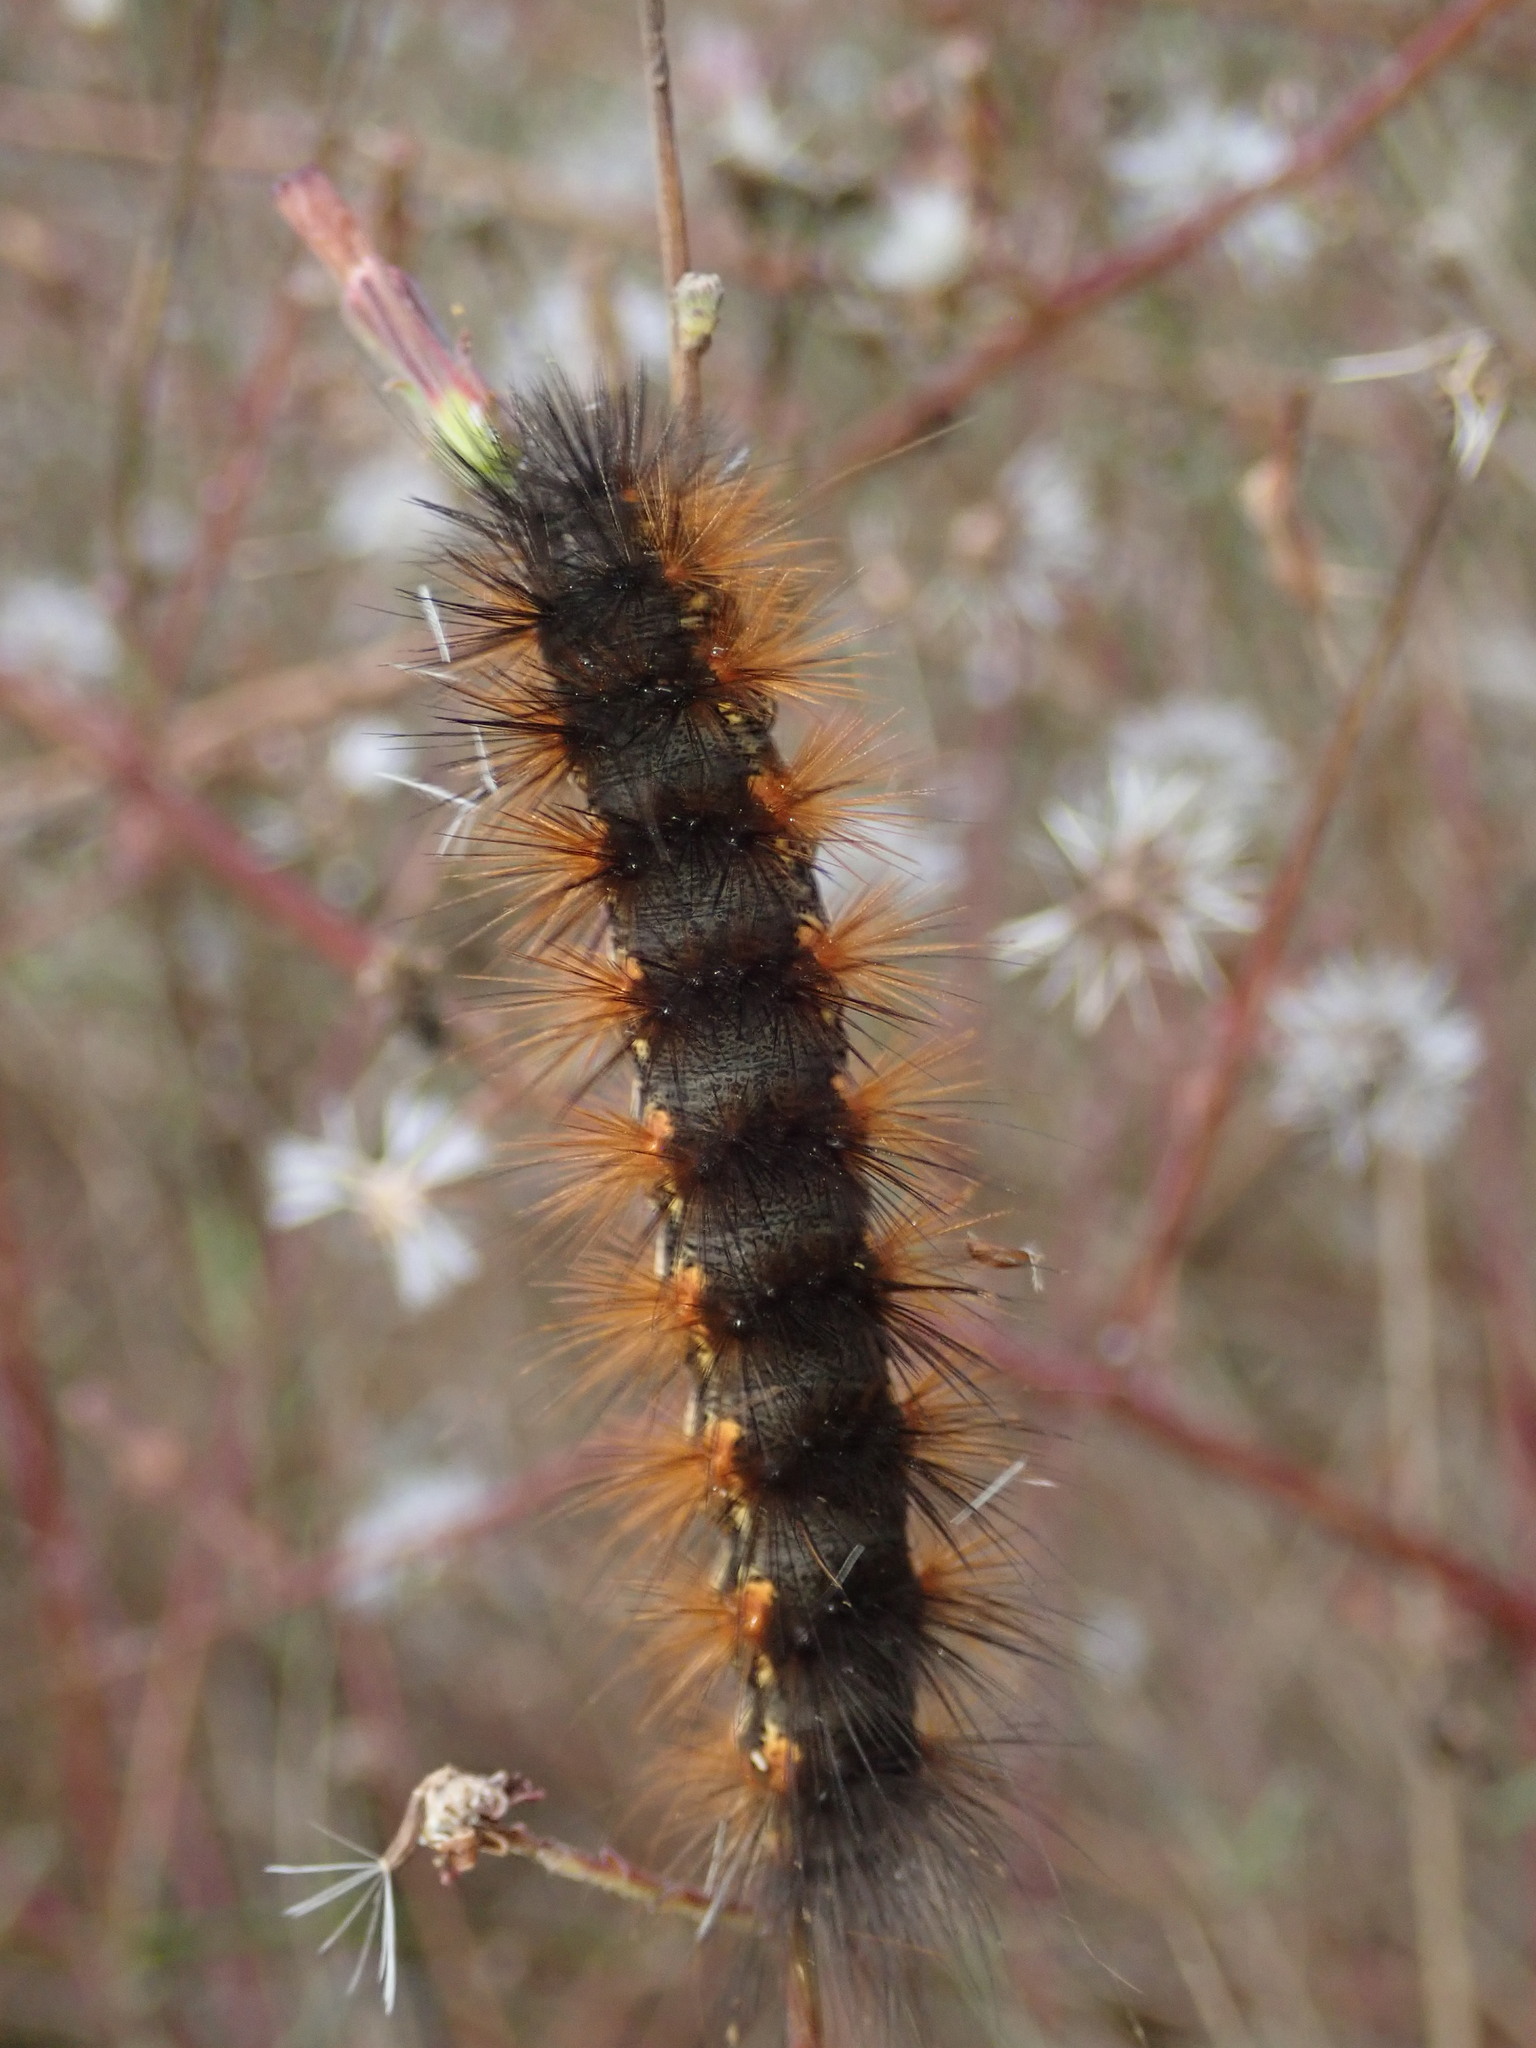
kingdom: Animalia
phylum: Arthropoda
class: Insecta
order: Lepidoptera
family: Erebidae
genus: Estigmene
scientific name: Estigmene acrea
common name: Salt marsh moth
